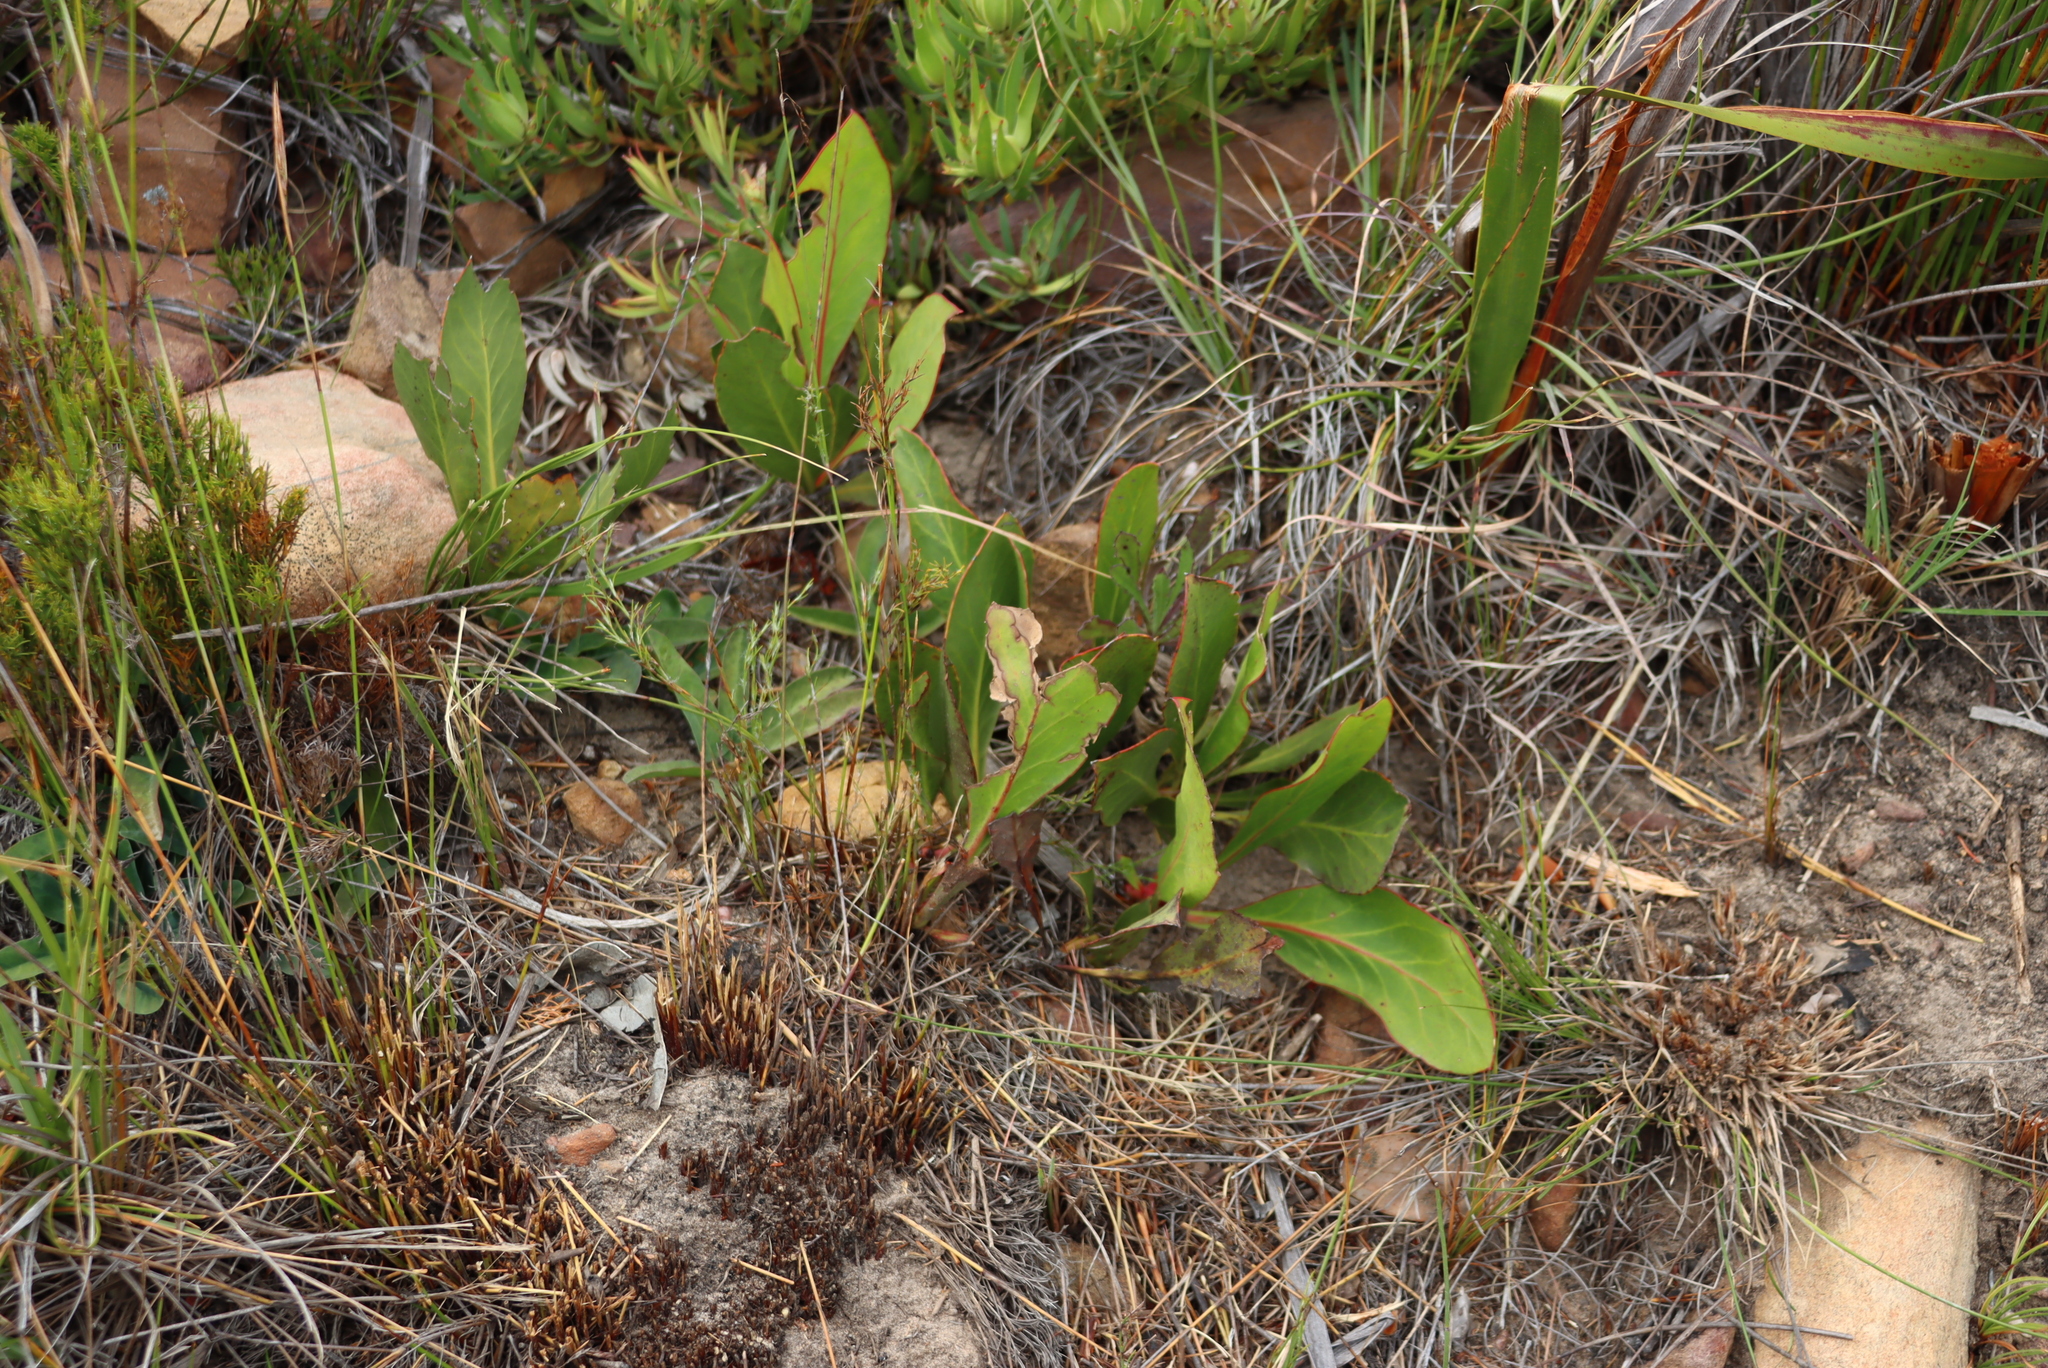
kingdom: Plantae
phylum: Tracheophyta
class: Magnoliopsida
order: Proteales
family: Proteaceae
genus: Protea
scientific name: Protea acaulos
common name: Common ground sugarbush
